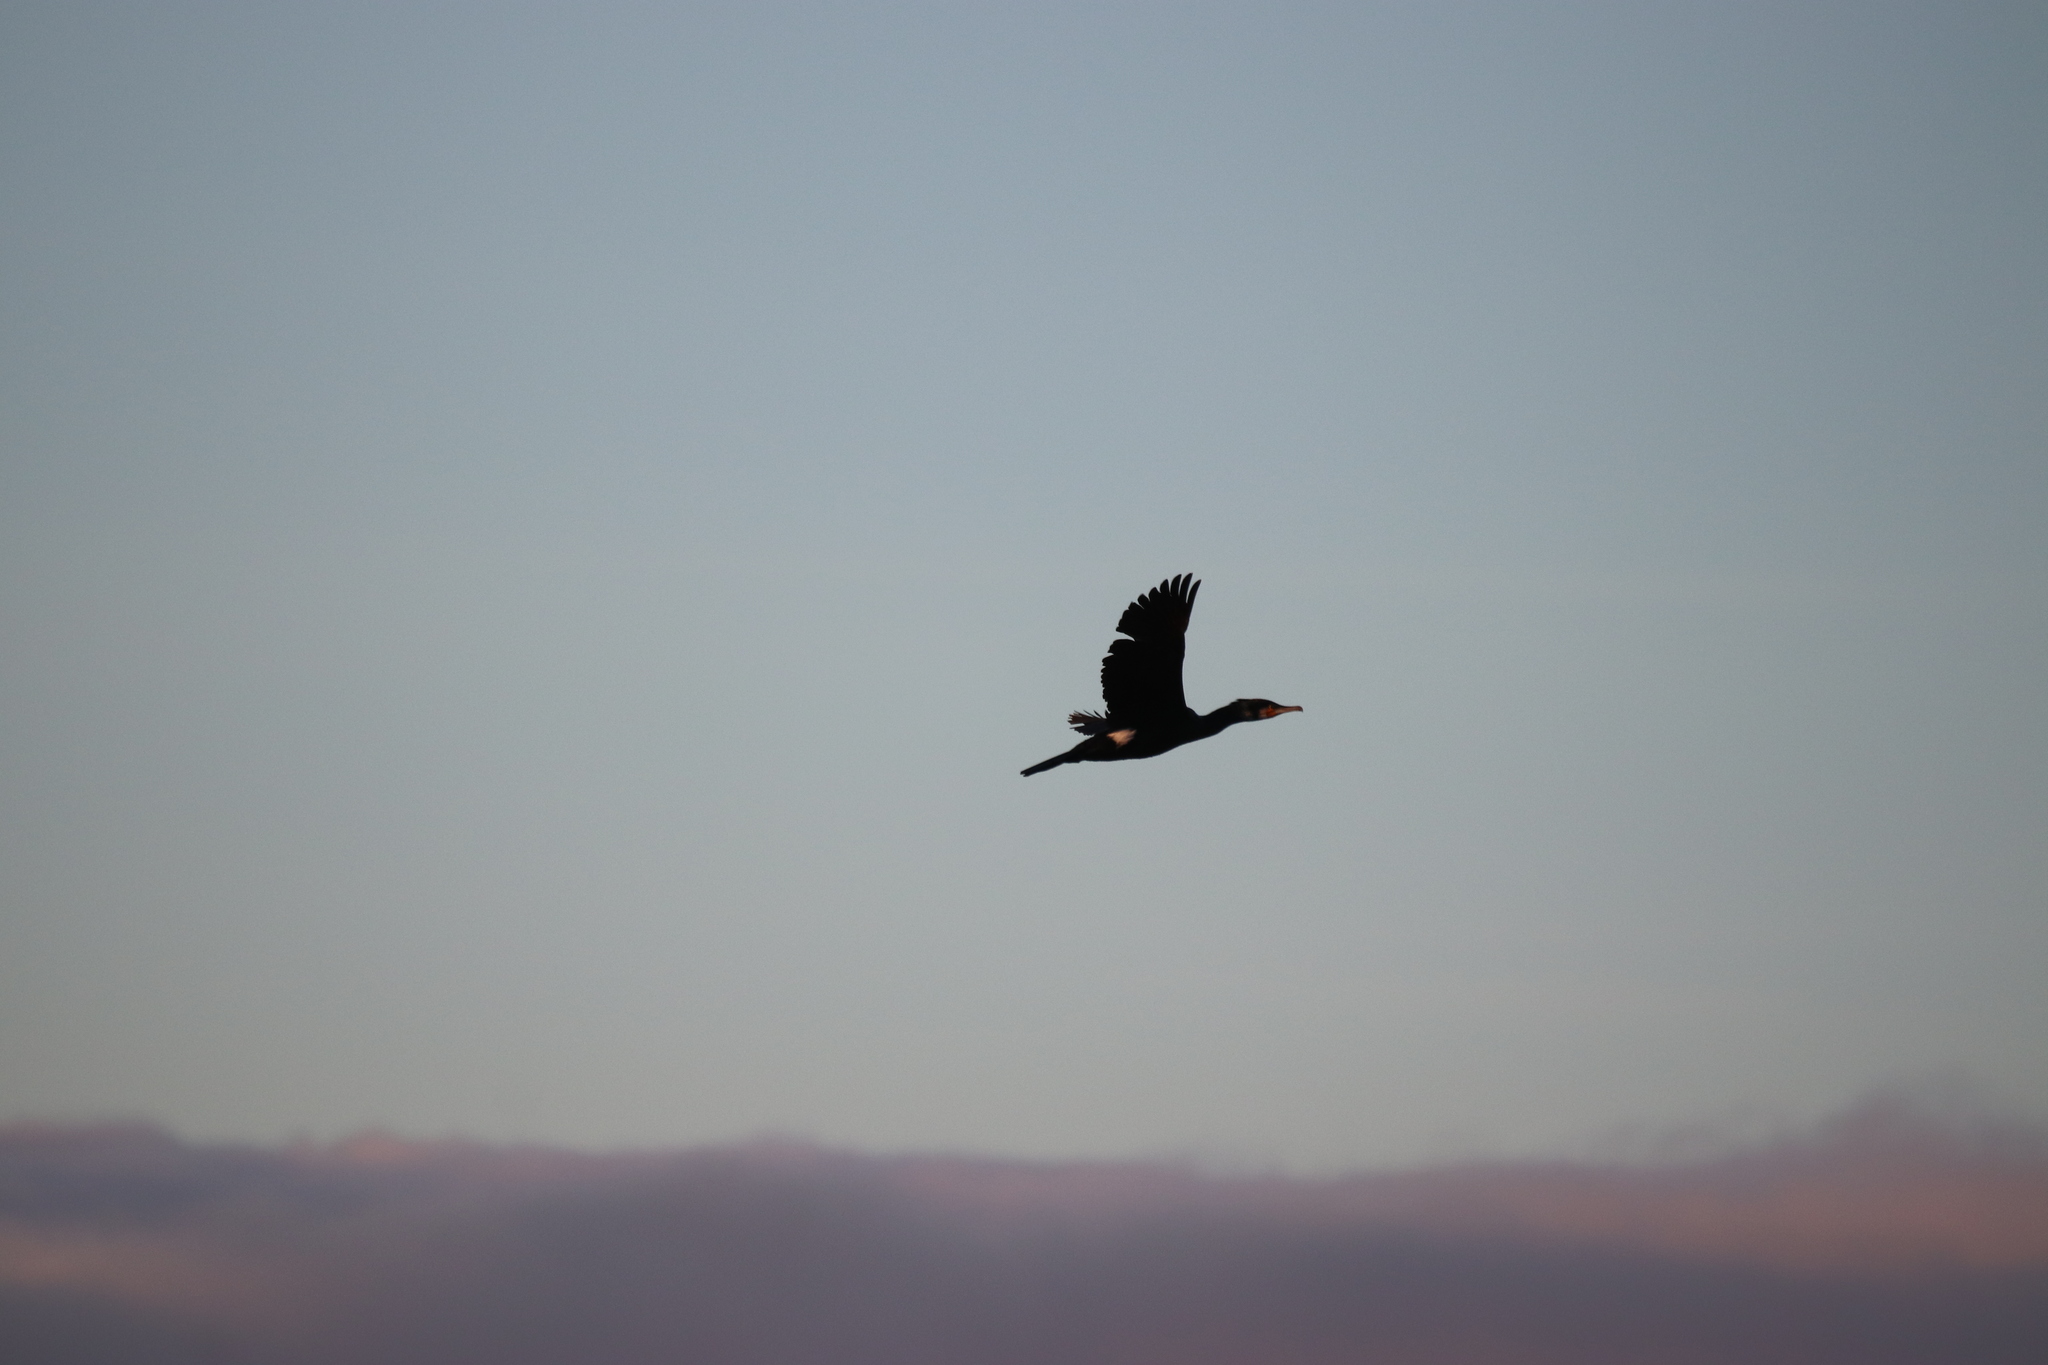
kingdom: Animalia
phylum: Chordata
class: Aves
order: Suliformes
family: Phalacrocoracidae
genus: Phalacrocorax
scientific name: Phalacrocorax carbo
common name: Great cormorant
